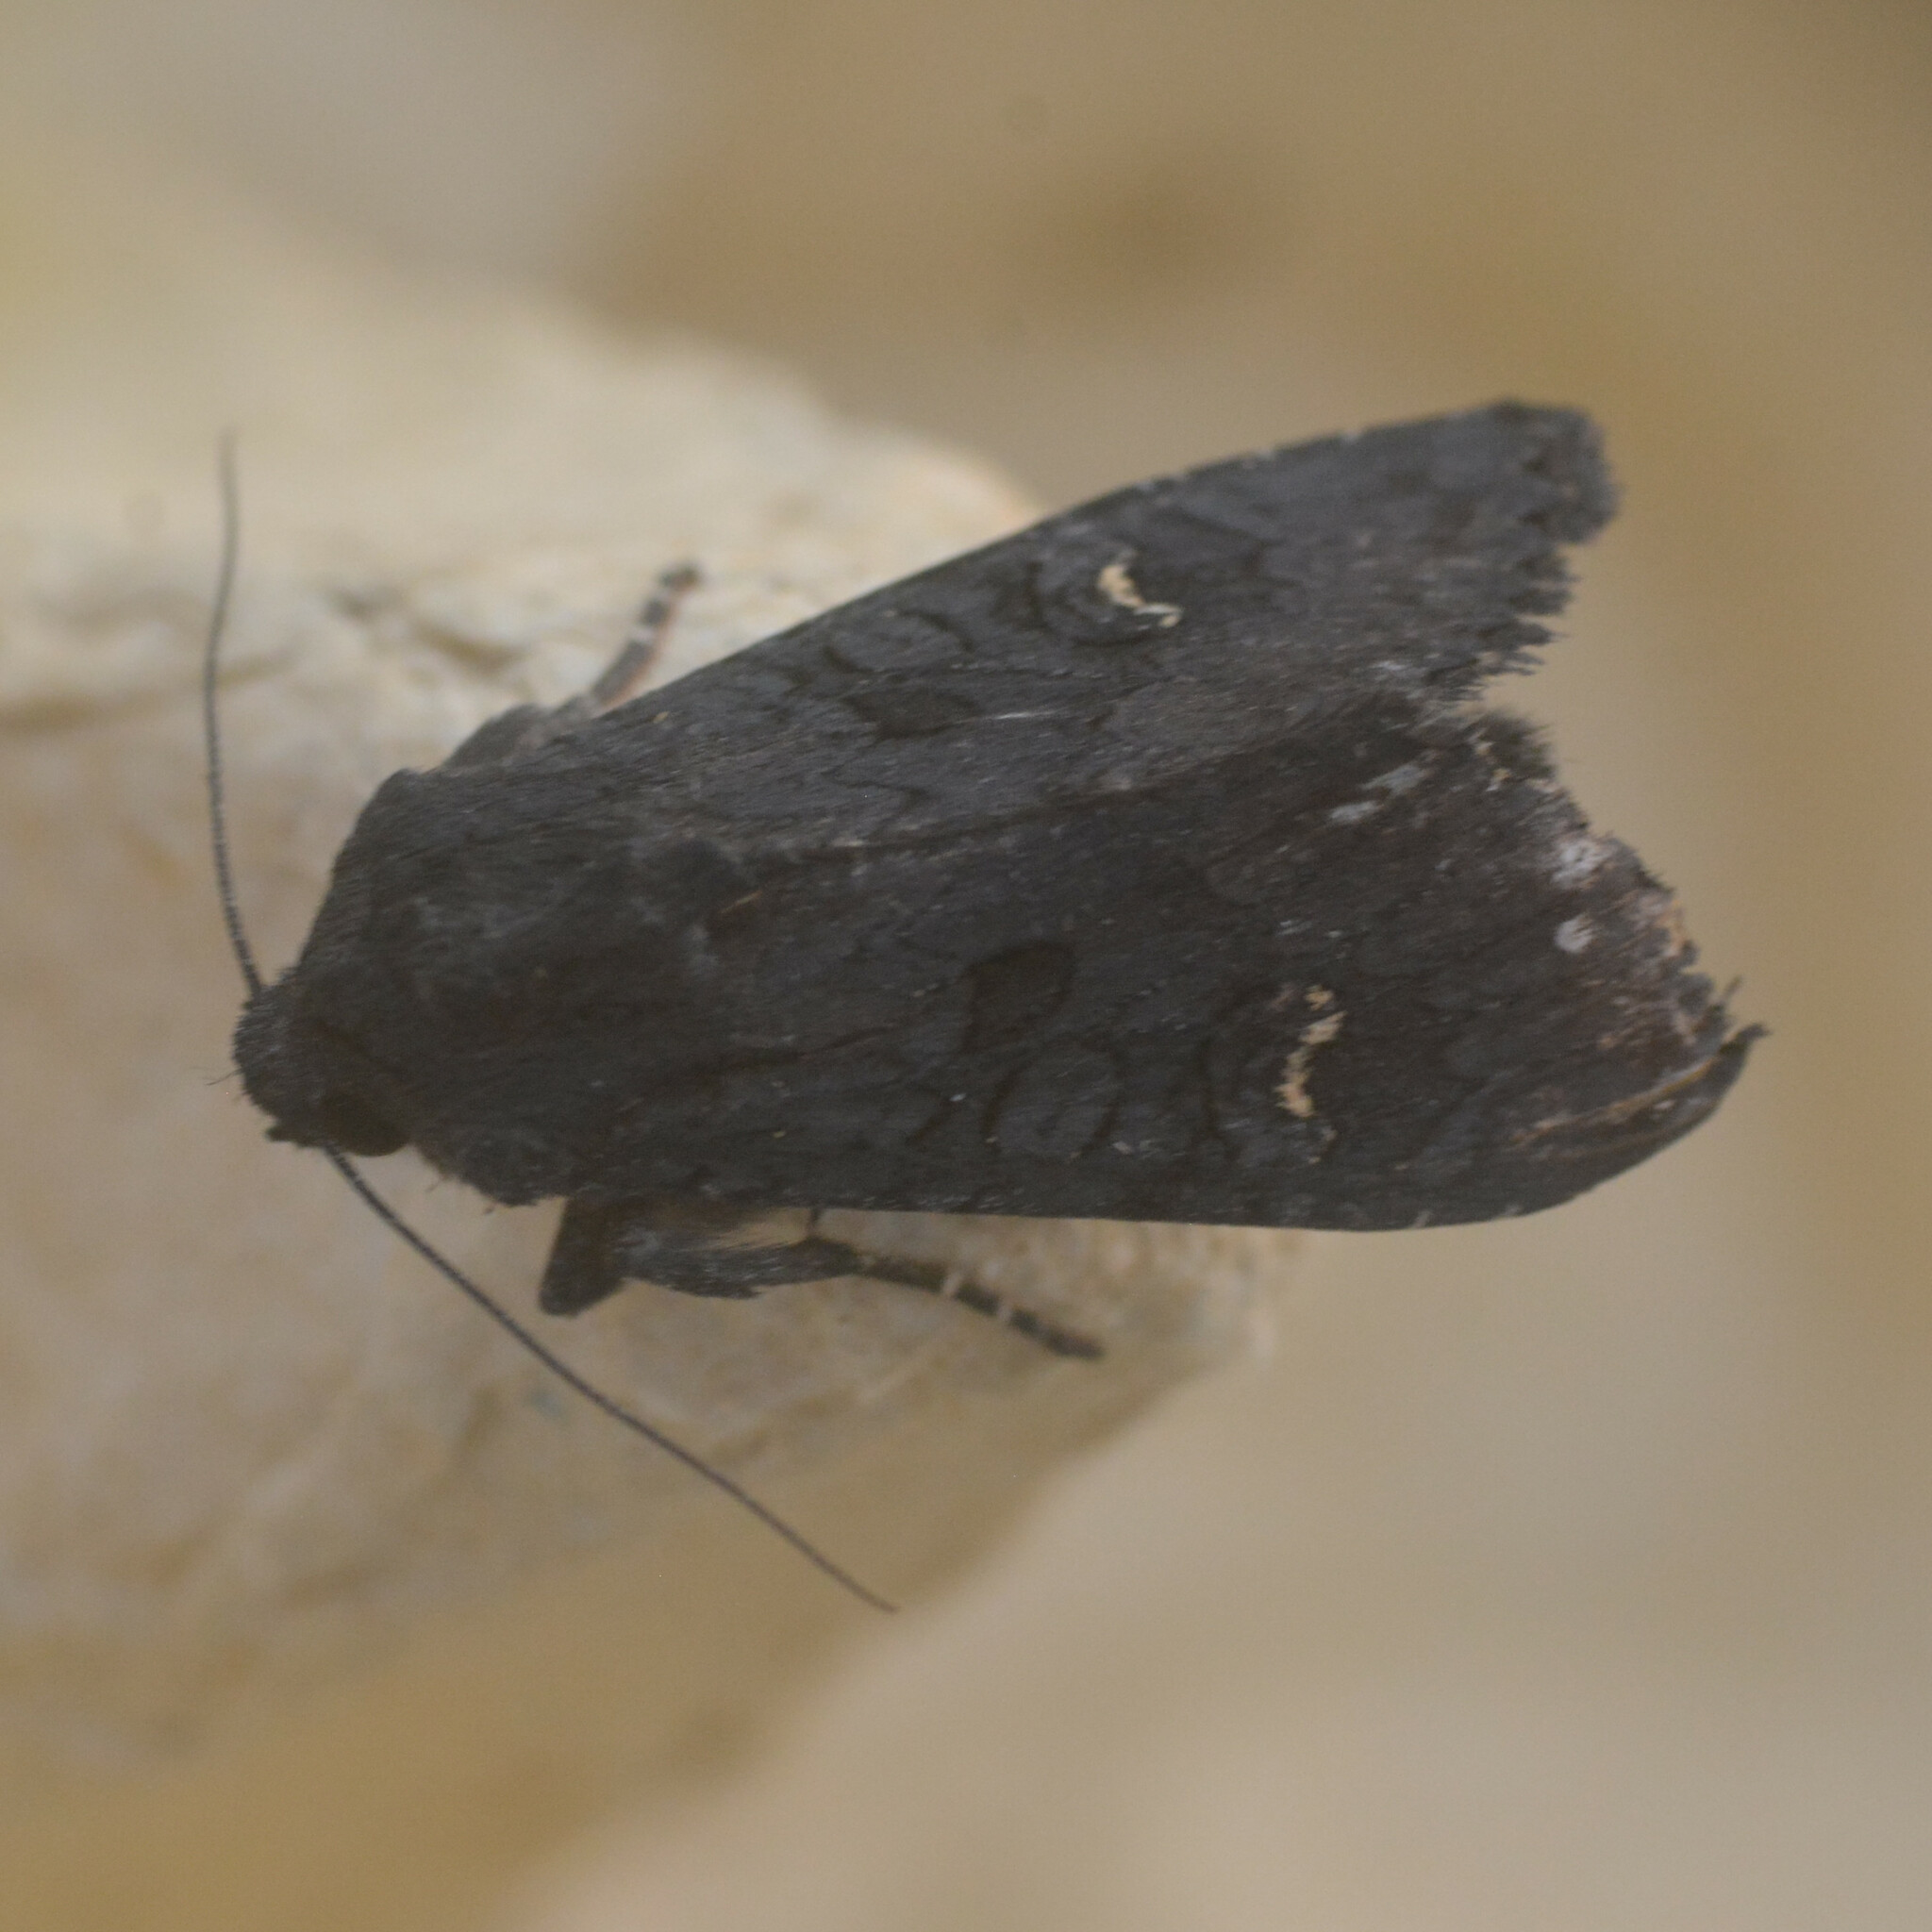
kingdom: Animalia
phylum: Arthropoda
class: Insecta
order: Lepidoptera
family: Noctuidae
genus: Aporophyla
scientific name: Aporophyla nigra
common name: Black rustic
